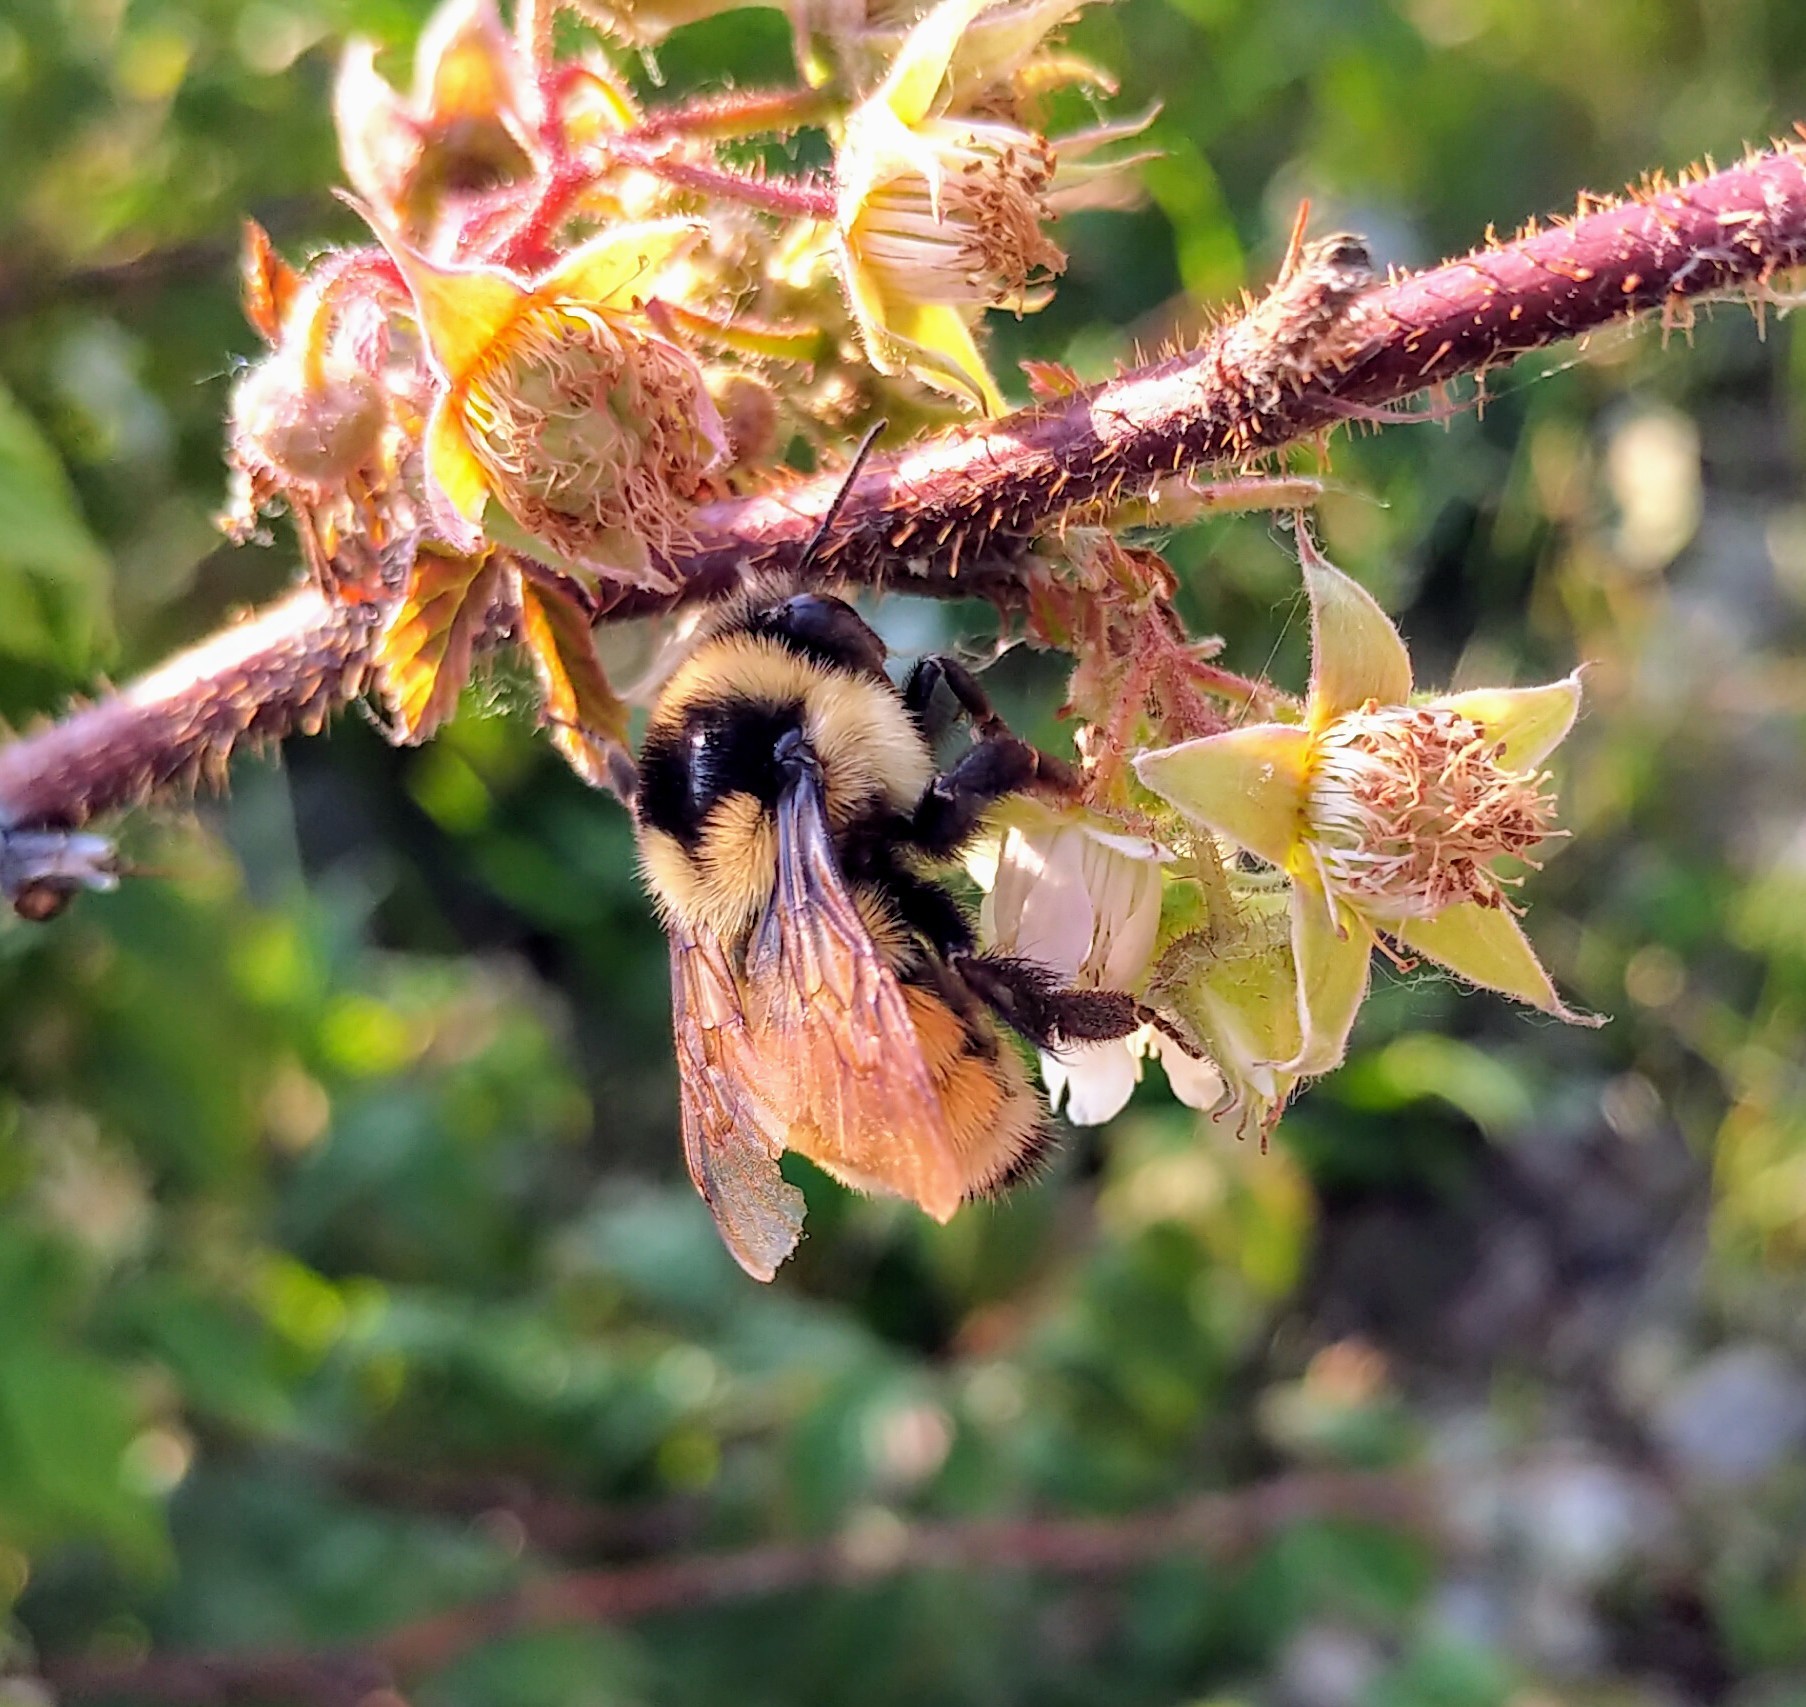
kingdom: Animalia
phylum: Arthropoda
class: Insecta
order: Hymenoptera
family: Apidae
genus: Bombus
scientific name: Bombus ternarius
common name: Tri-colored bumble bee
